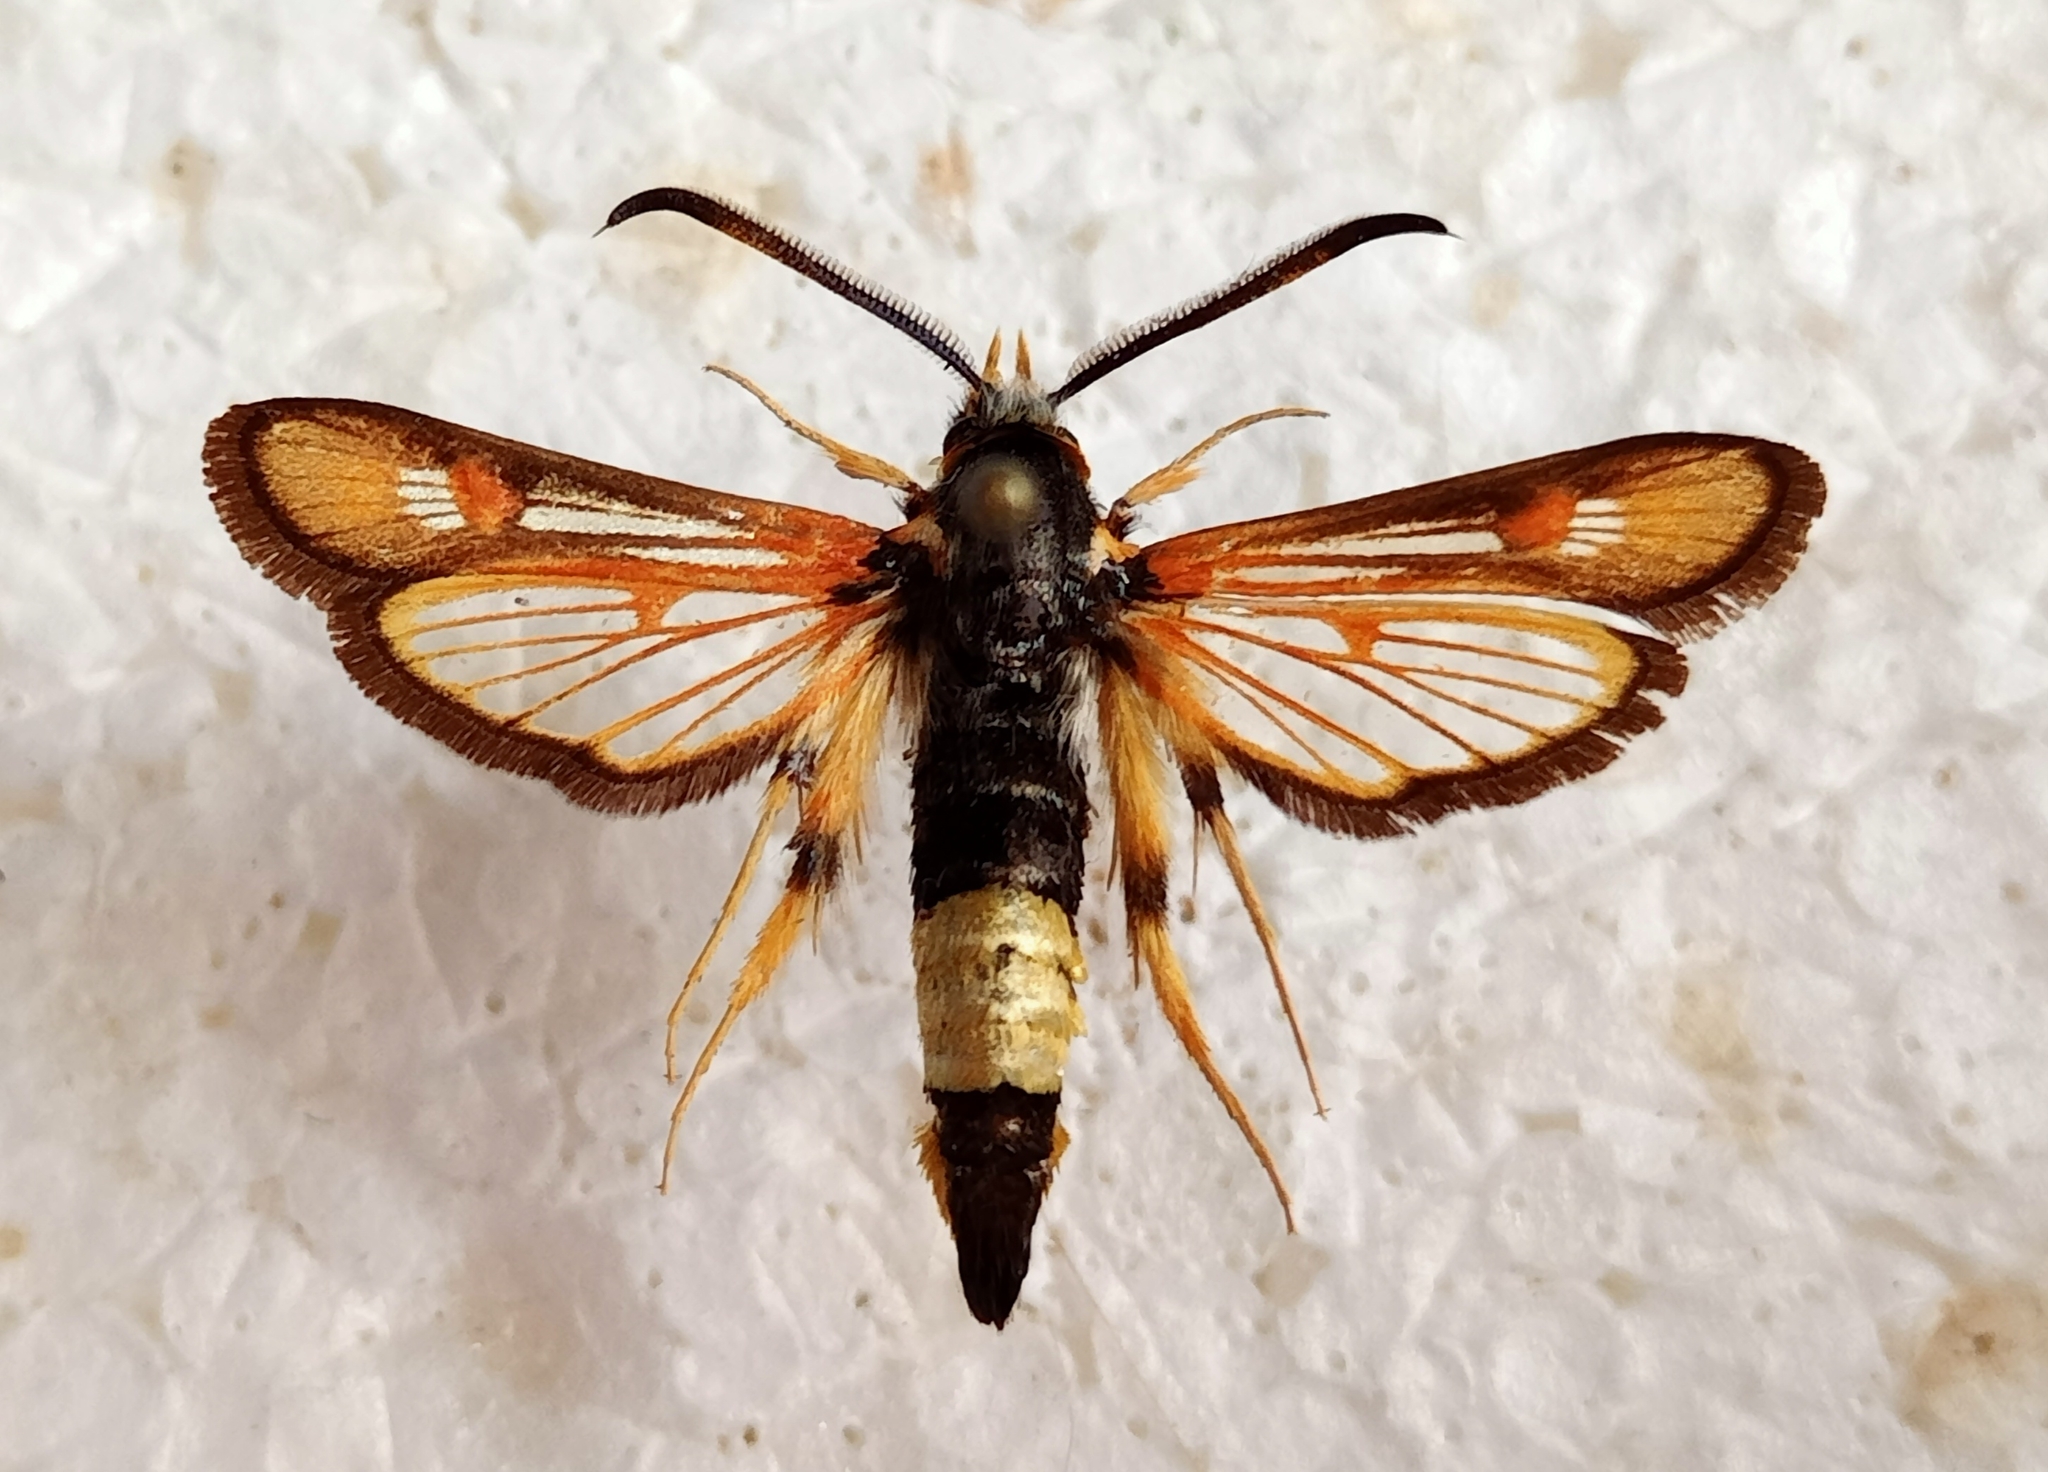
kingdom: Animalia
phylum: Arthropoda
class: Insecta
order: Lepidoptera
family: Sesiidae
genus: Bembecia
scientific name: Bembecia stiziformis
